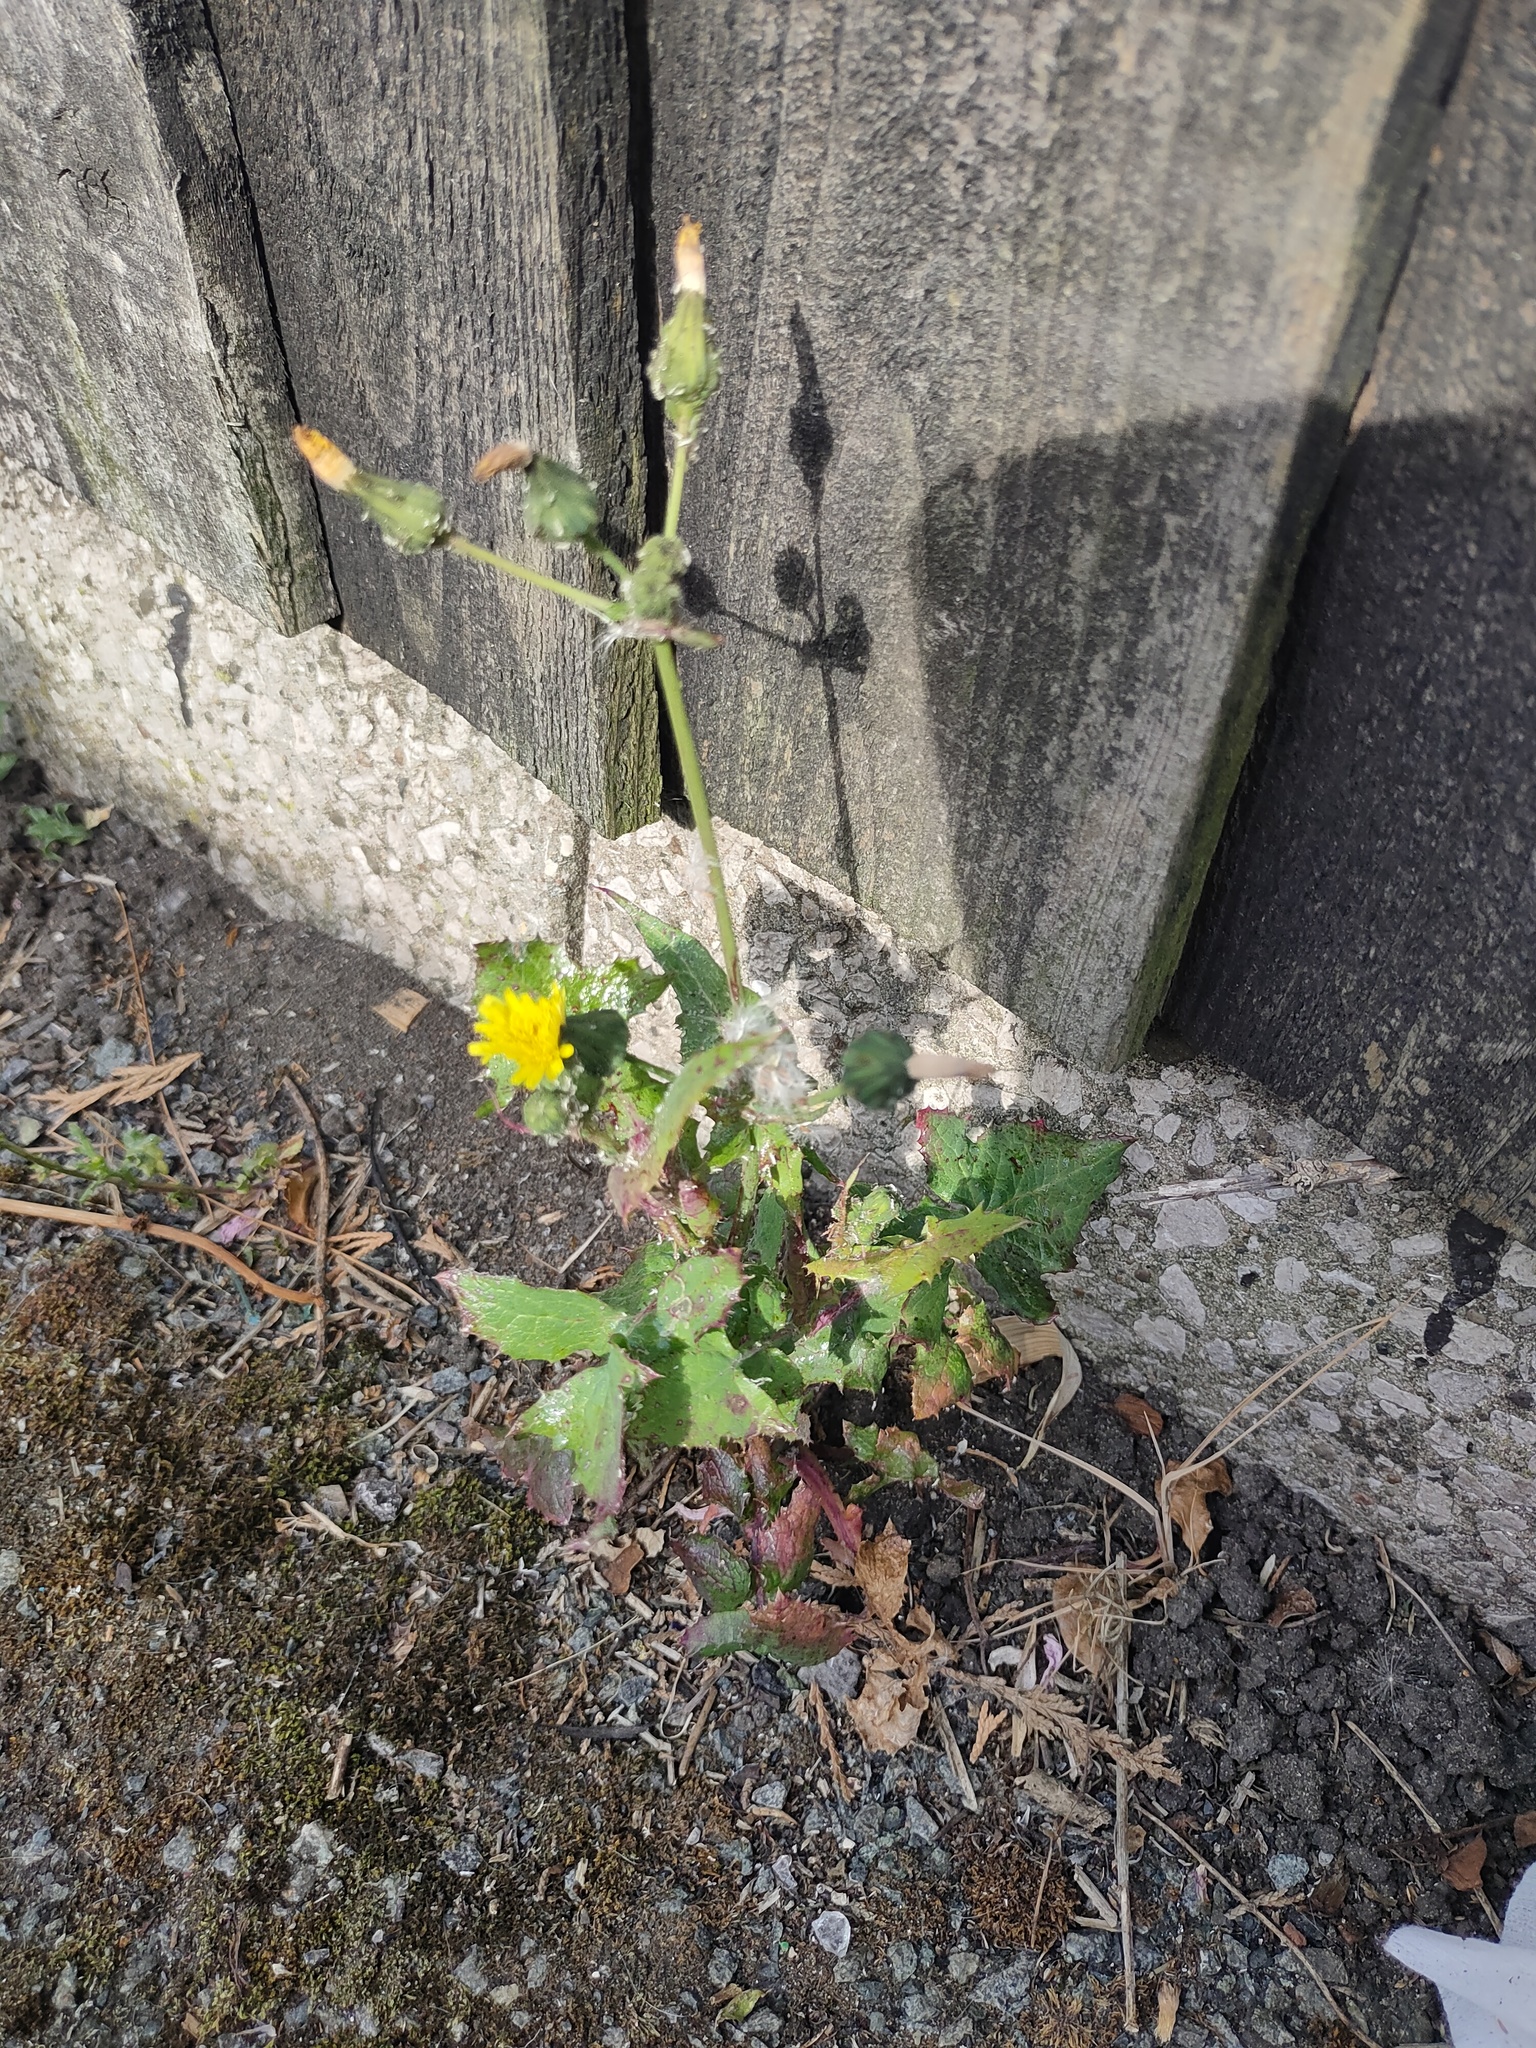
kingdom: Plantae
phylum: Tracheophyta
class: Magnoliopsida
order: Asterales
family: Asteraceae
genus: Sonchus
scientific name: Sonchus oleraceus
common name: Common sowthistle
